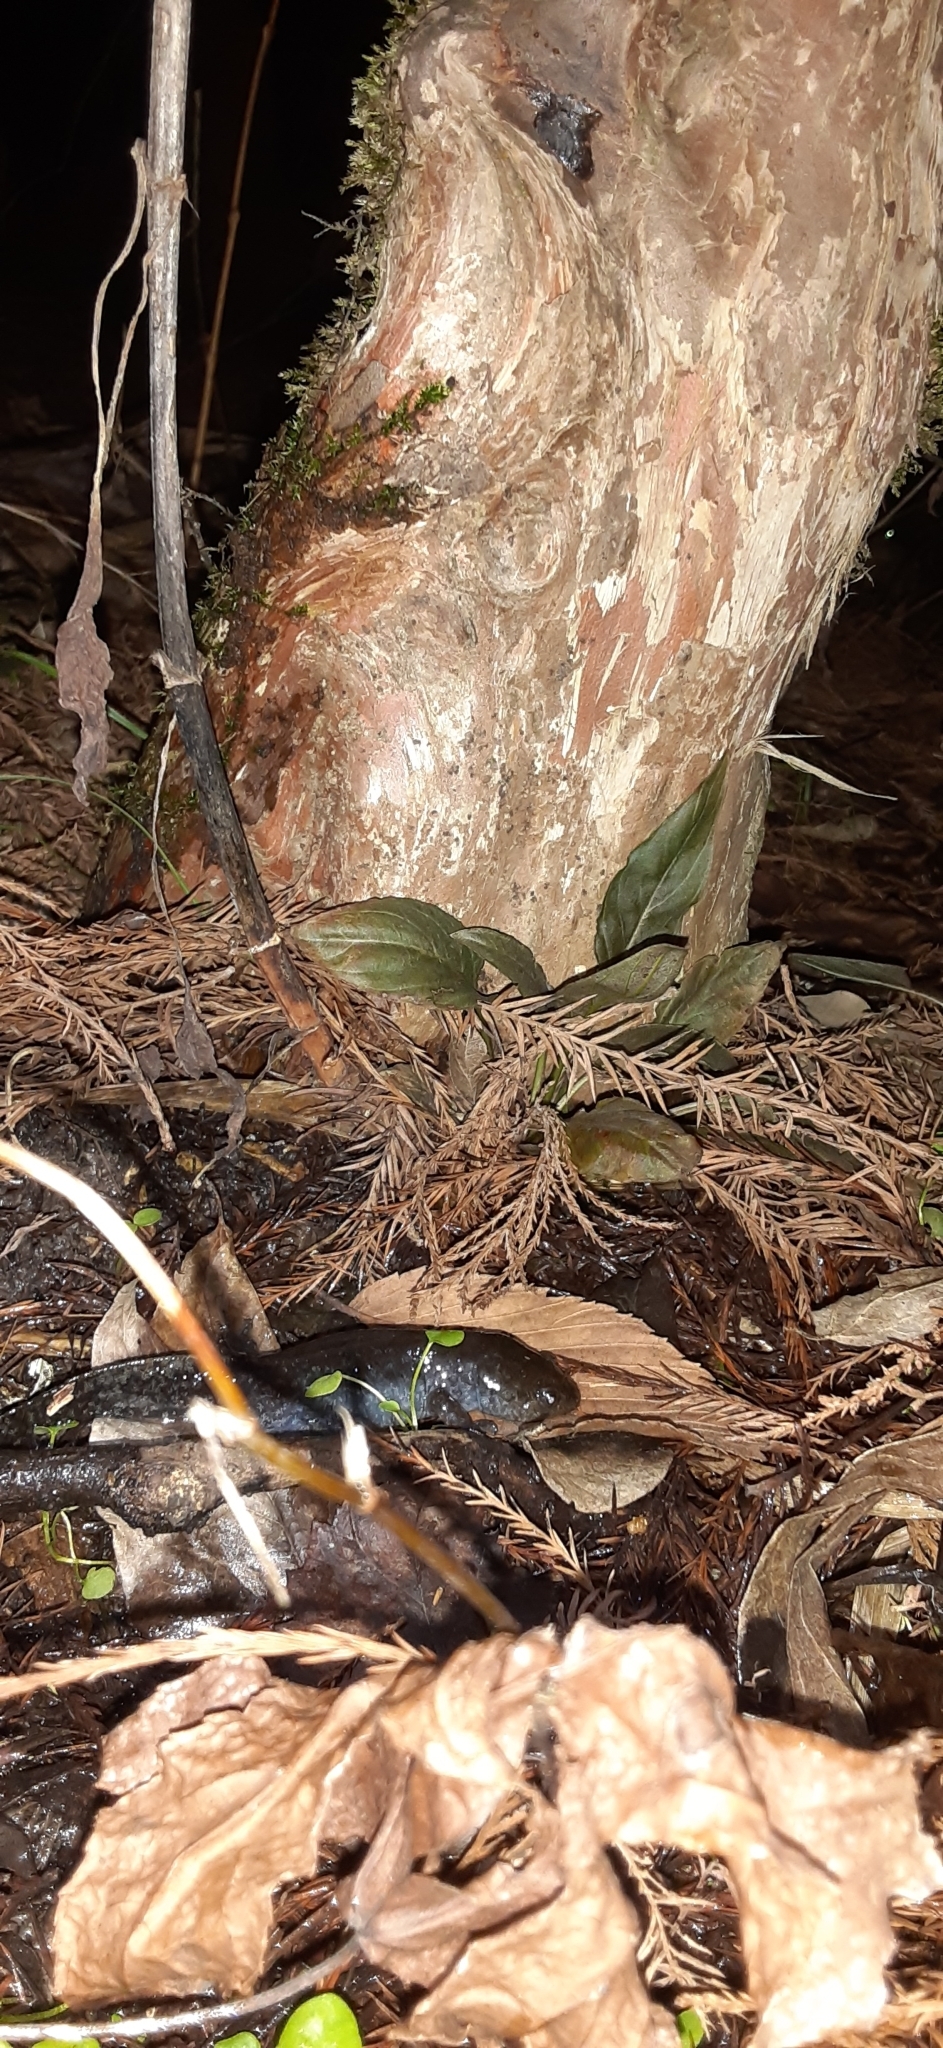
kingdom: Animalia
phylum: Chordata
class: Amphibia
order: Caudata
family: Ambystomatidae
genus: Ambystoma
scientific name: Ambystoma talpoideum
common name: Mole salamander
